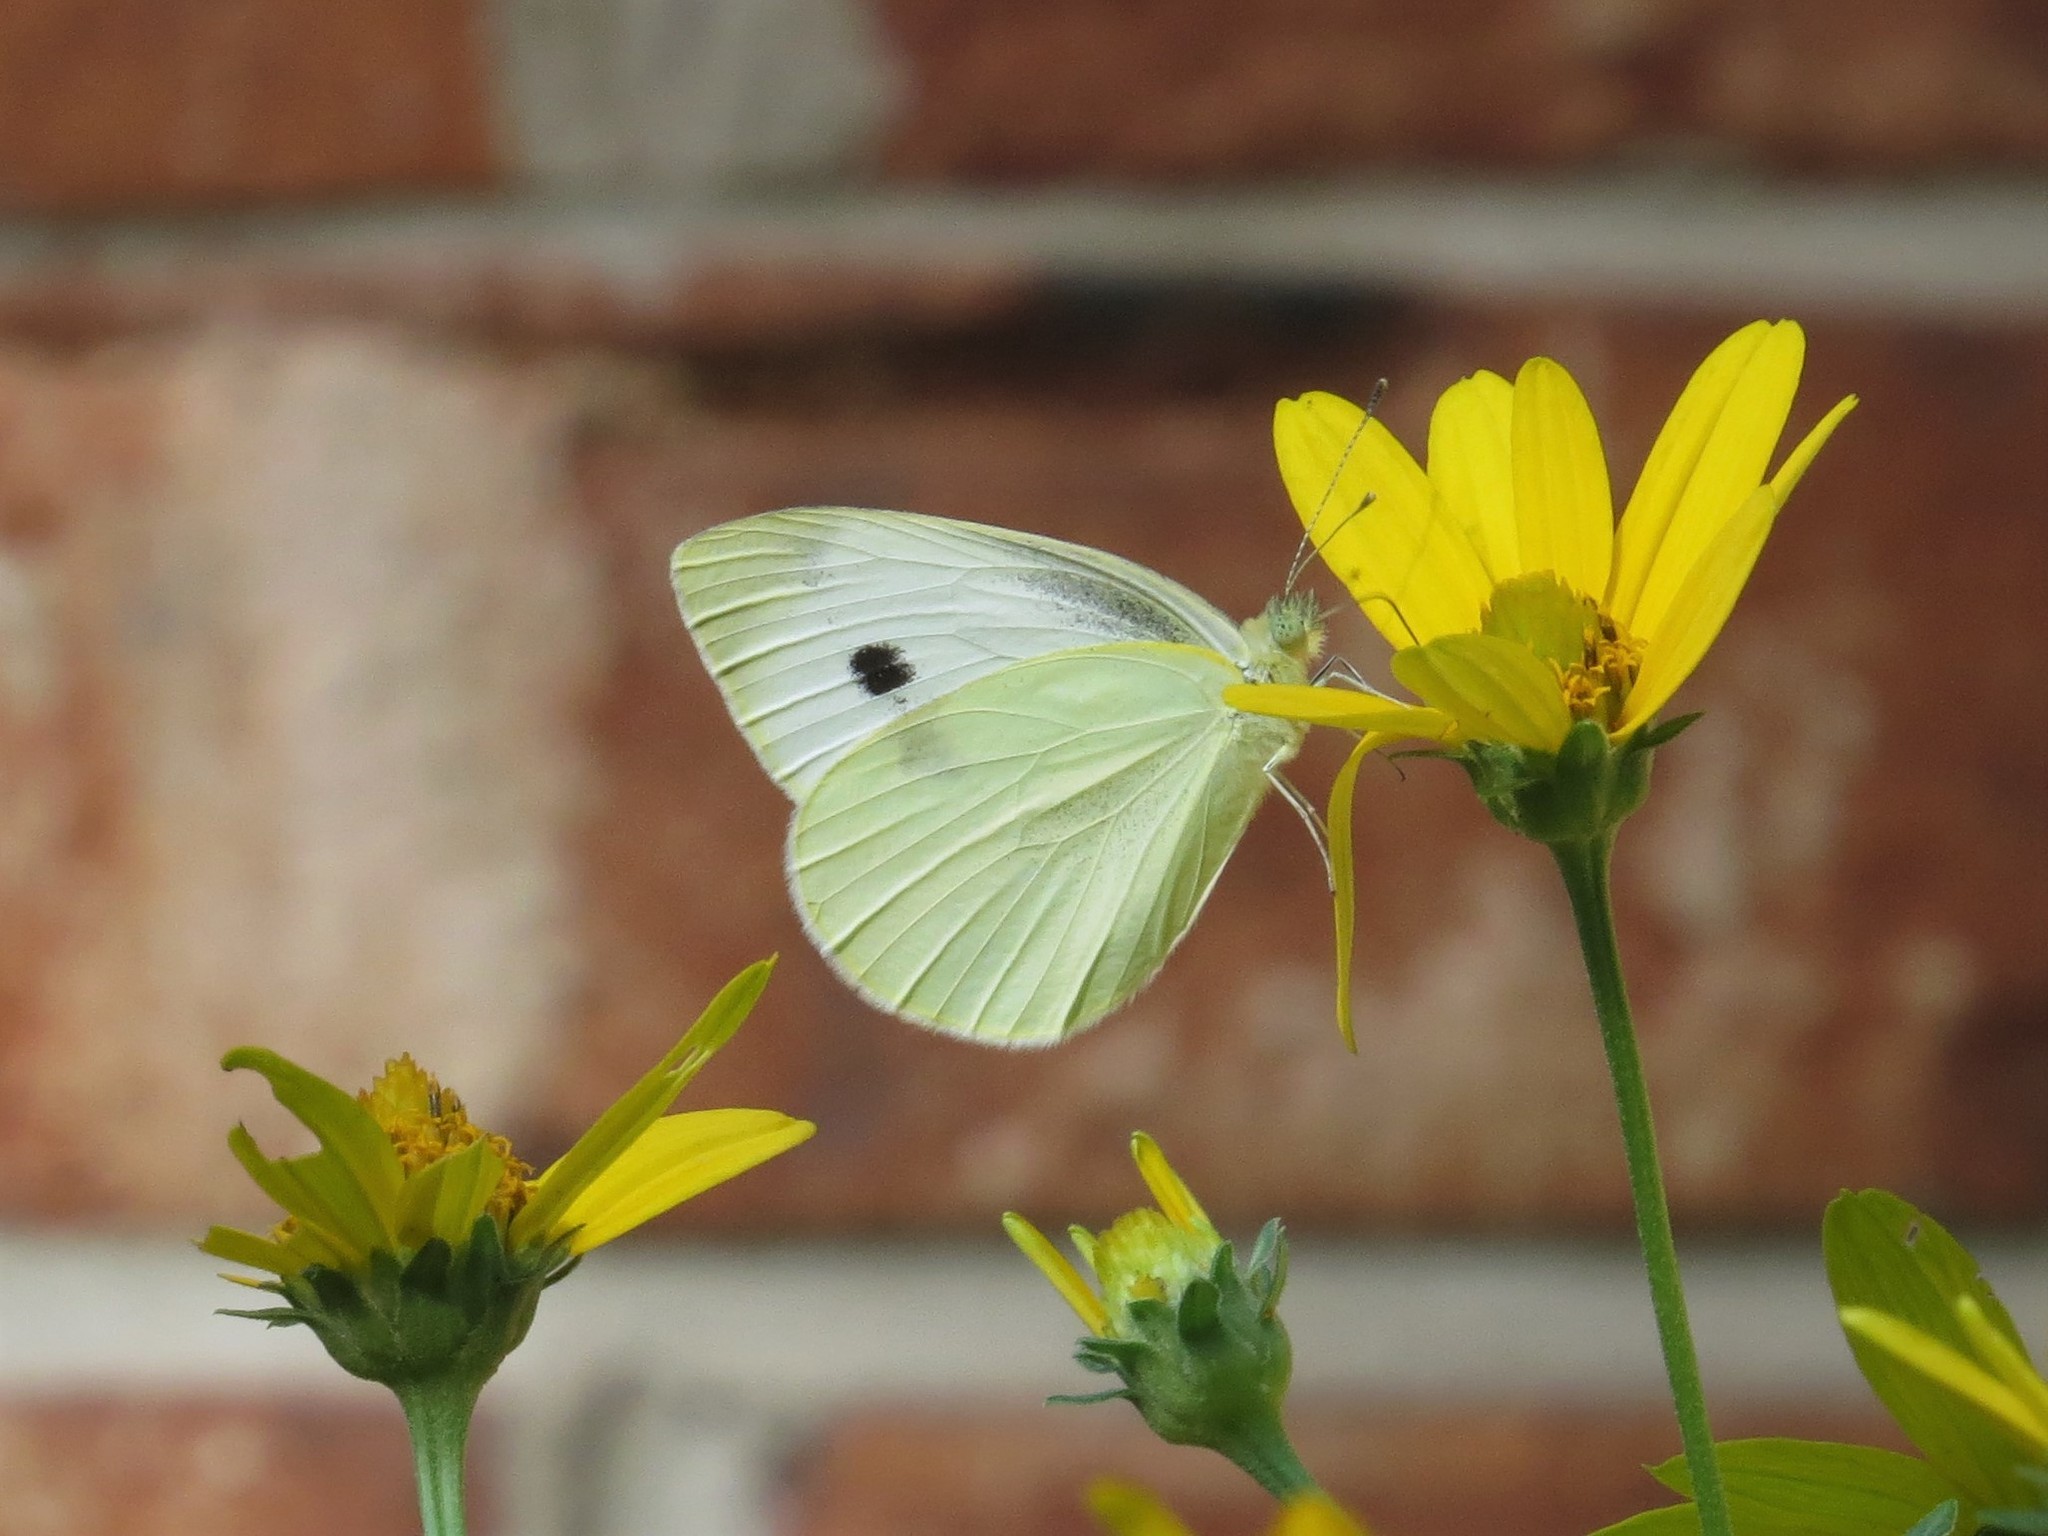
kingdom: Animalia
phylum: Arthropoda
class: Insecta
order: Lepidoptera
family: Pieridae
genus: Pieris
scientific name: Pieris rapae
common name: Small white
